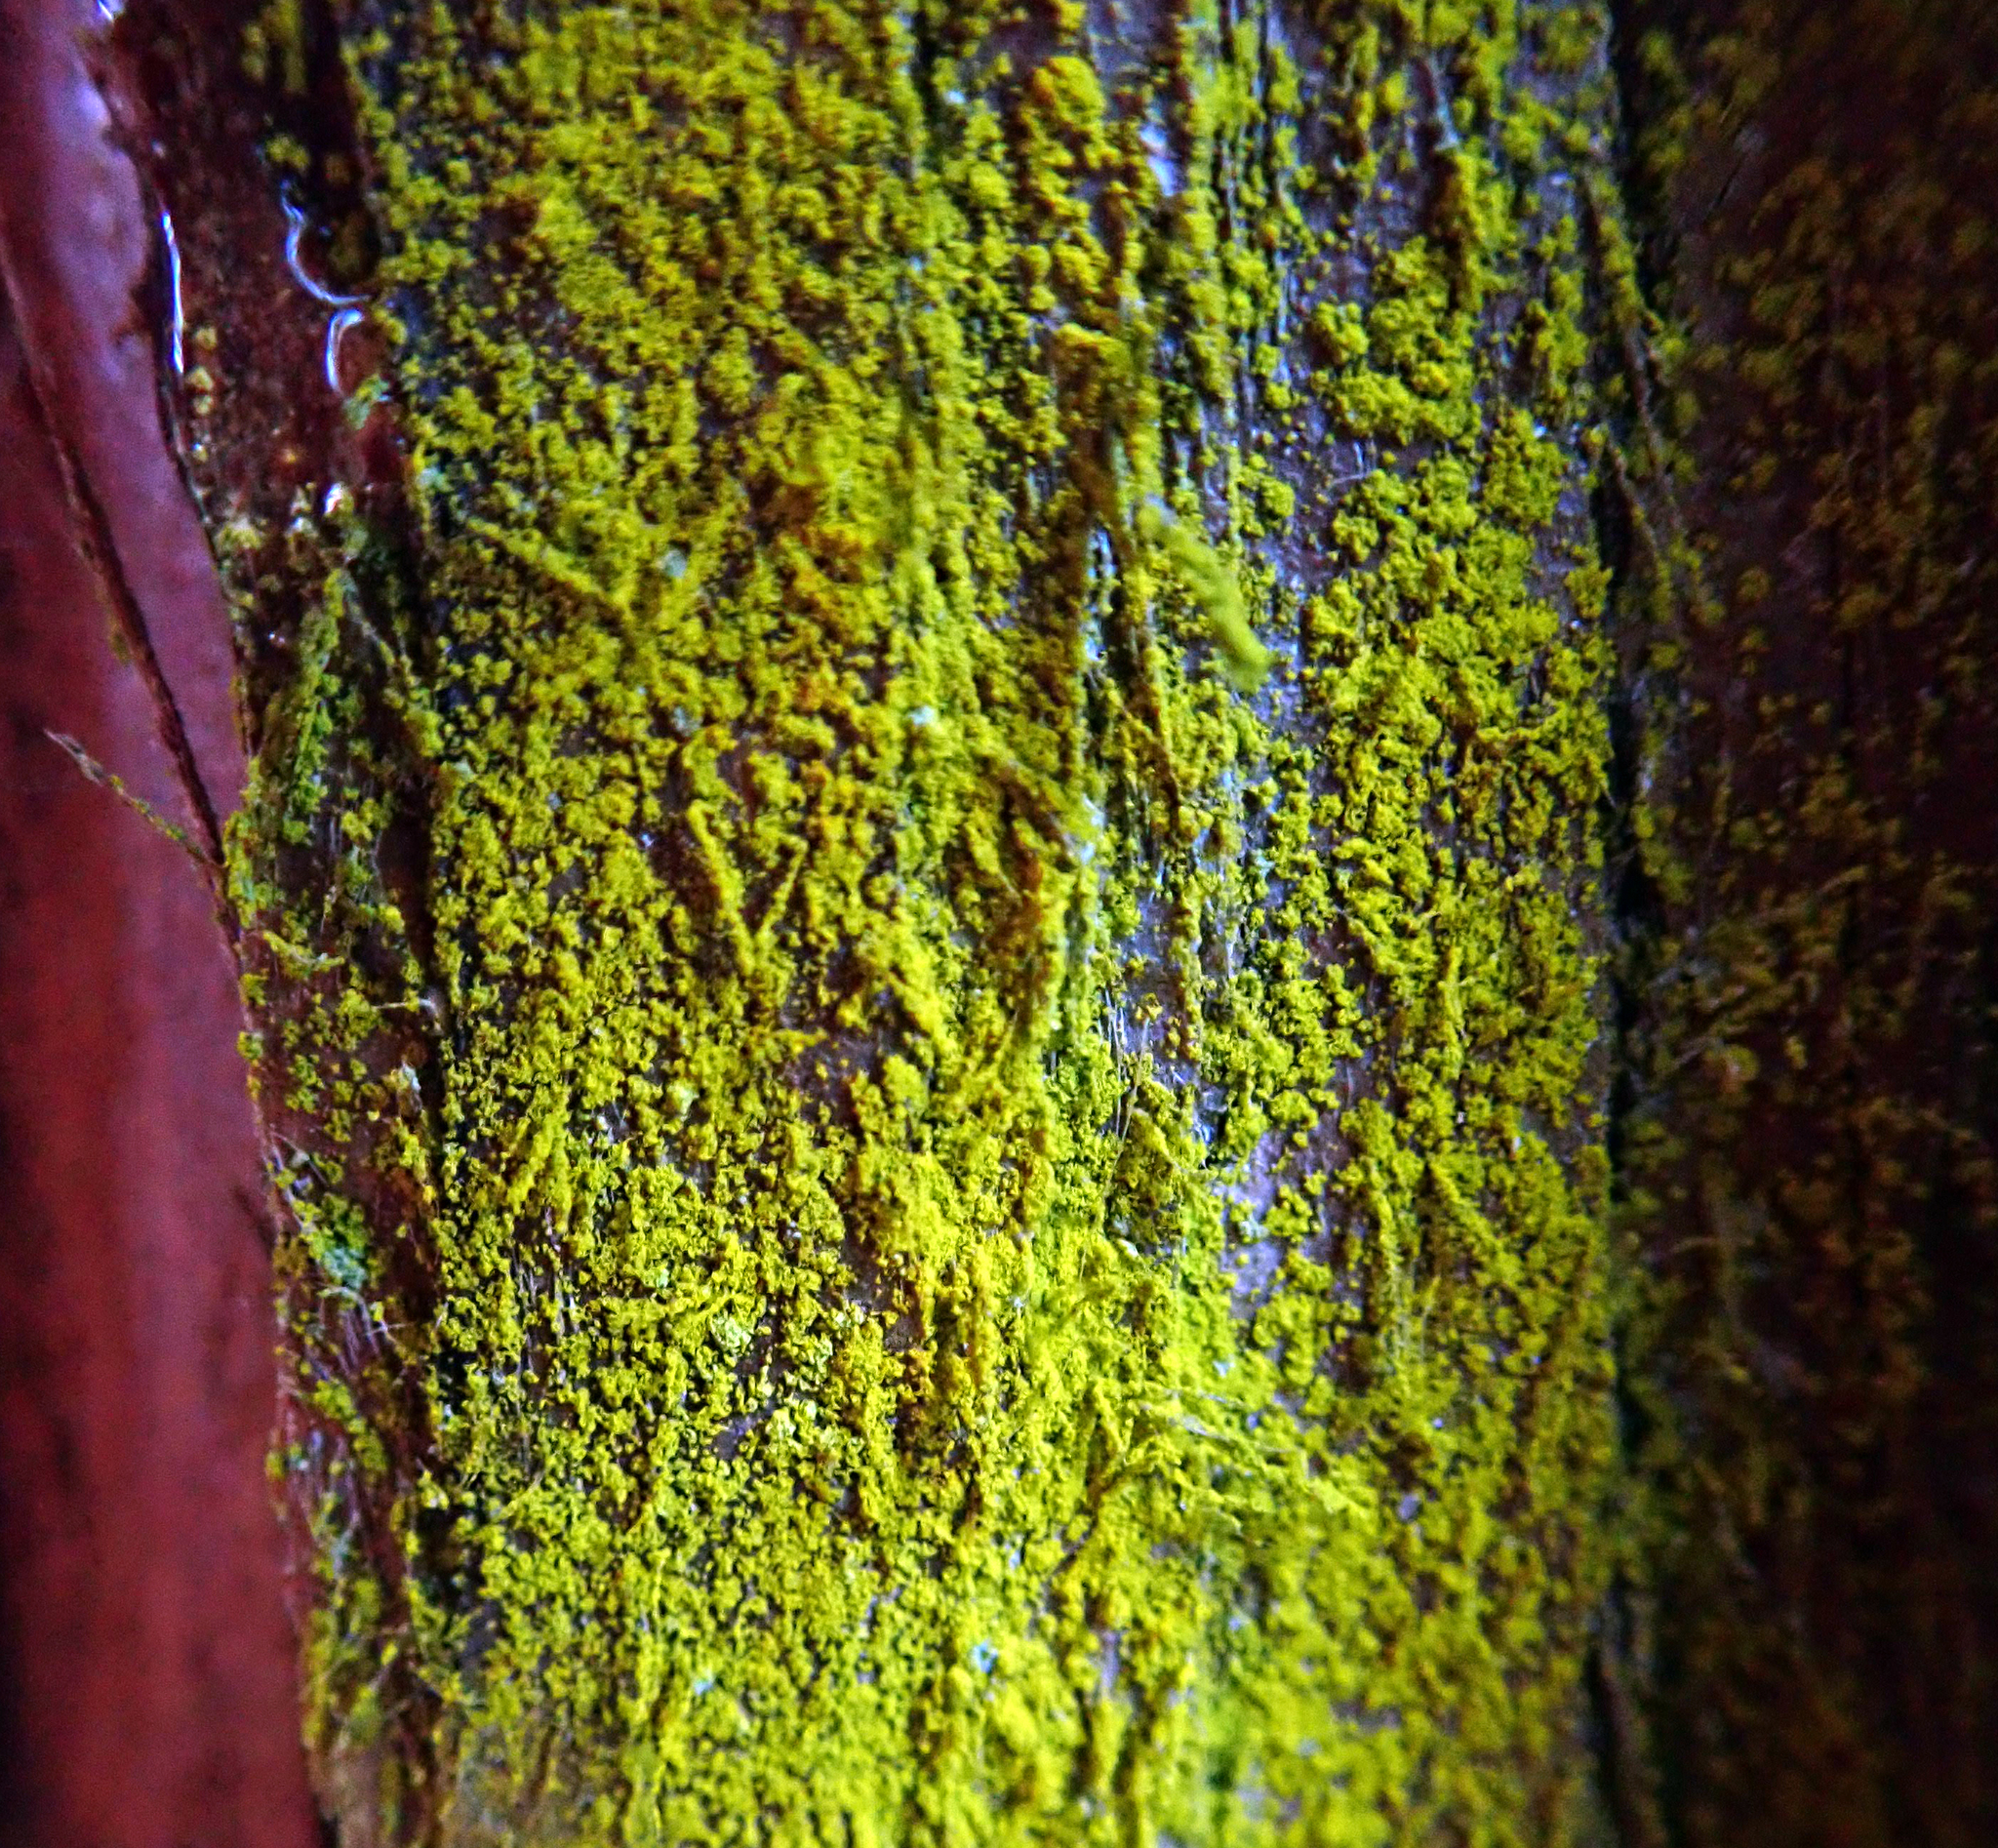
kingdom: Fungi
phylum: Ascomycota
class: Arthoniomycetes
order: Arthoniales
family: Chrysotrichaceae
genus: Chrysothrix
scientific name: Chrysothrix xanthina
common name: Common gold-dust
